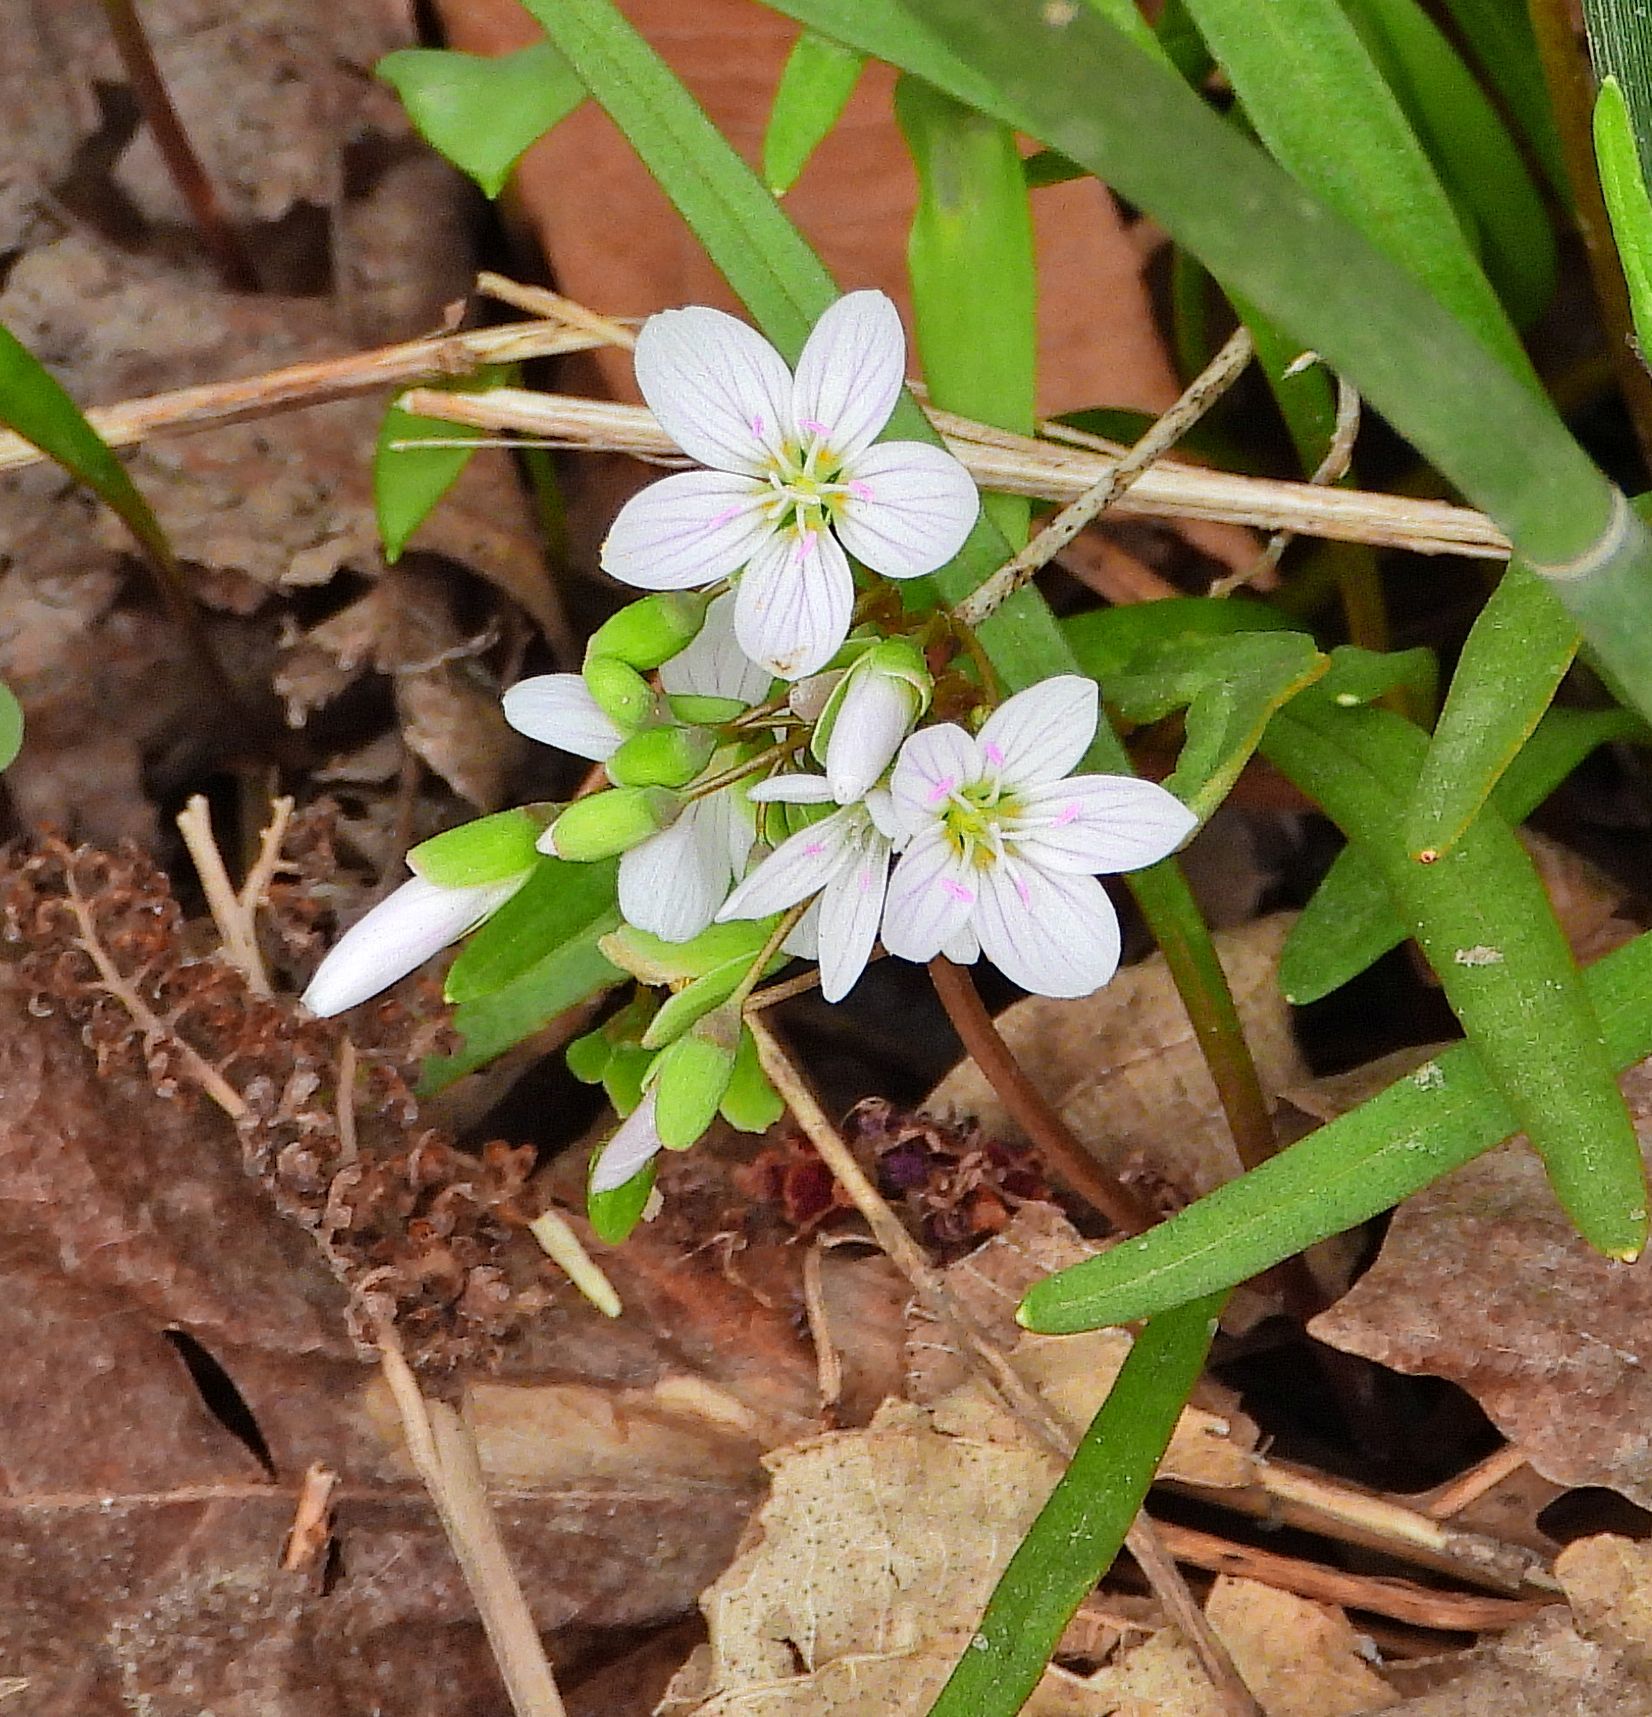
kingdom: Plantae
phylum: Tracheophyta
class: Magnoliopsida
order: Caryophyllales
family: Montiaceae
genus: Claytonia
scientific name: Claytonia virginica
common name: Virginia springbeauty
